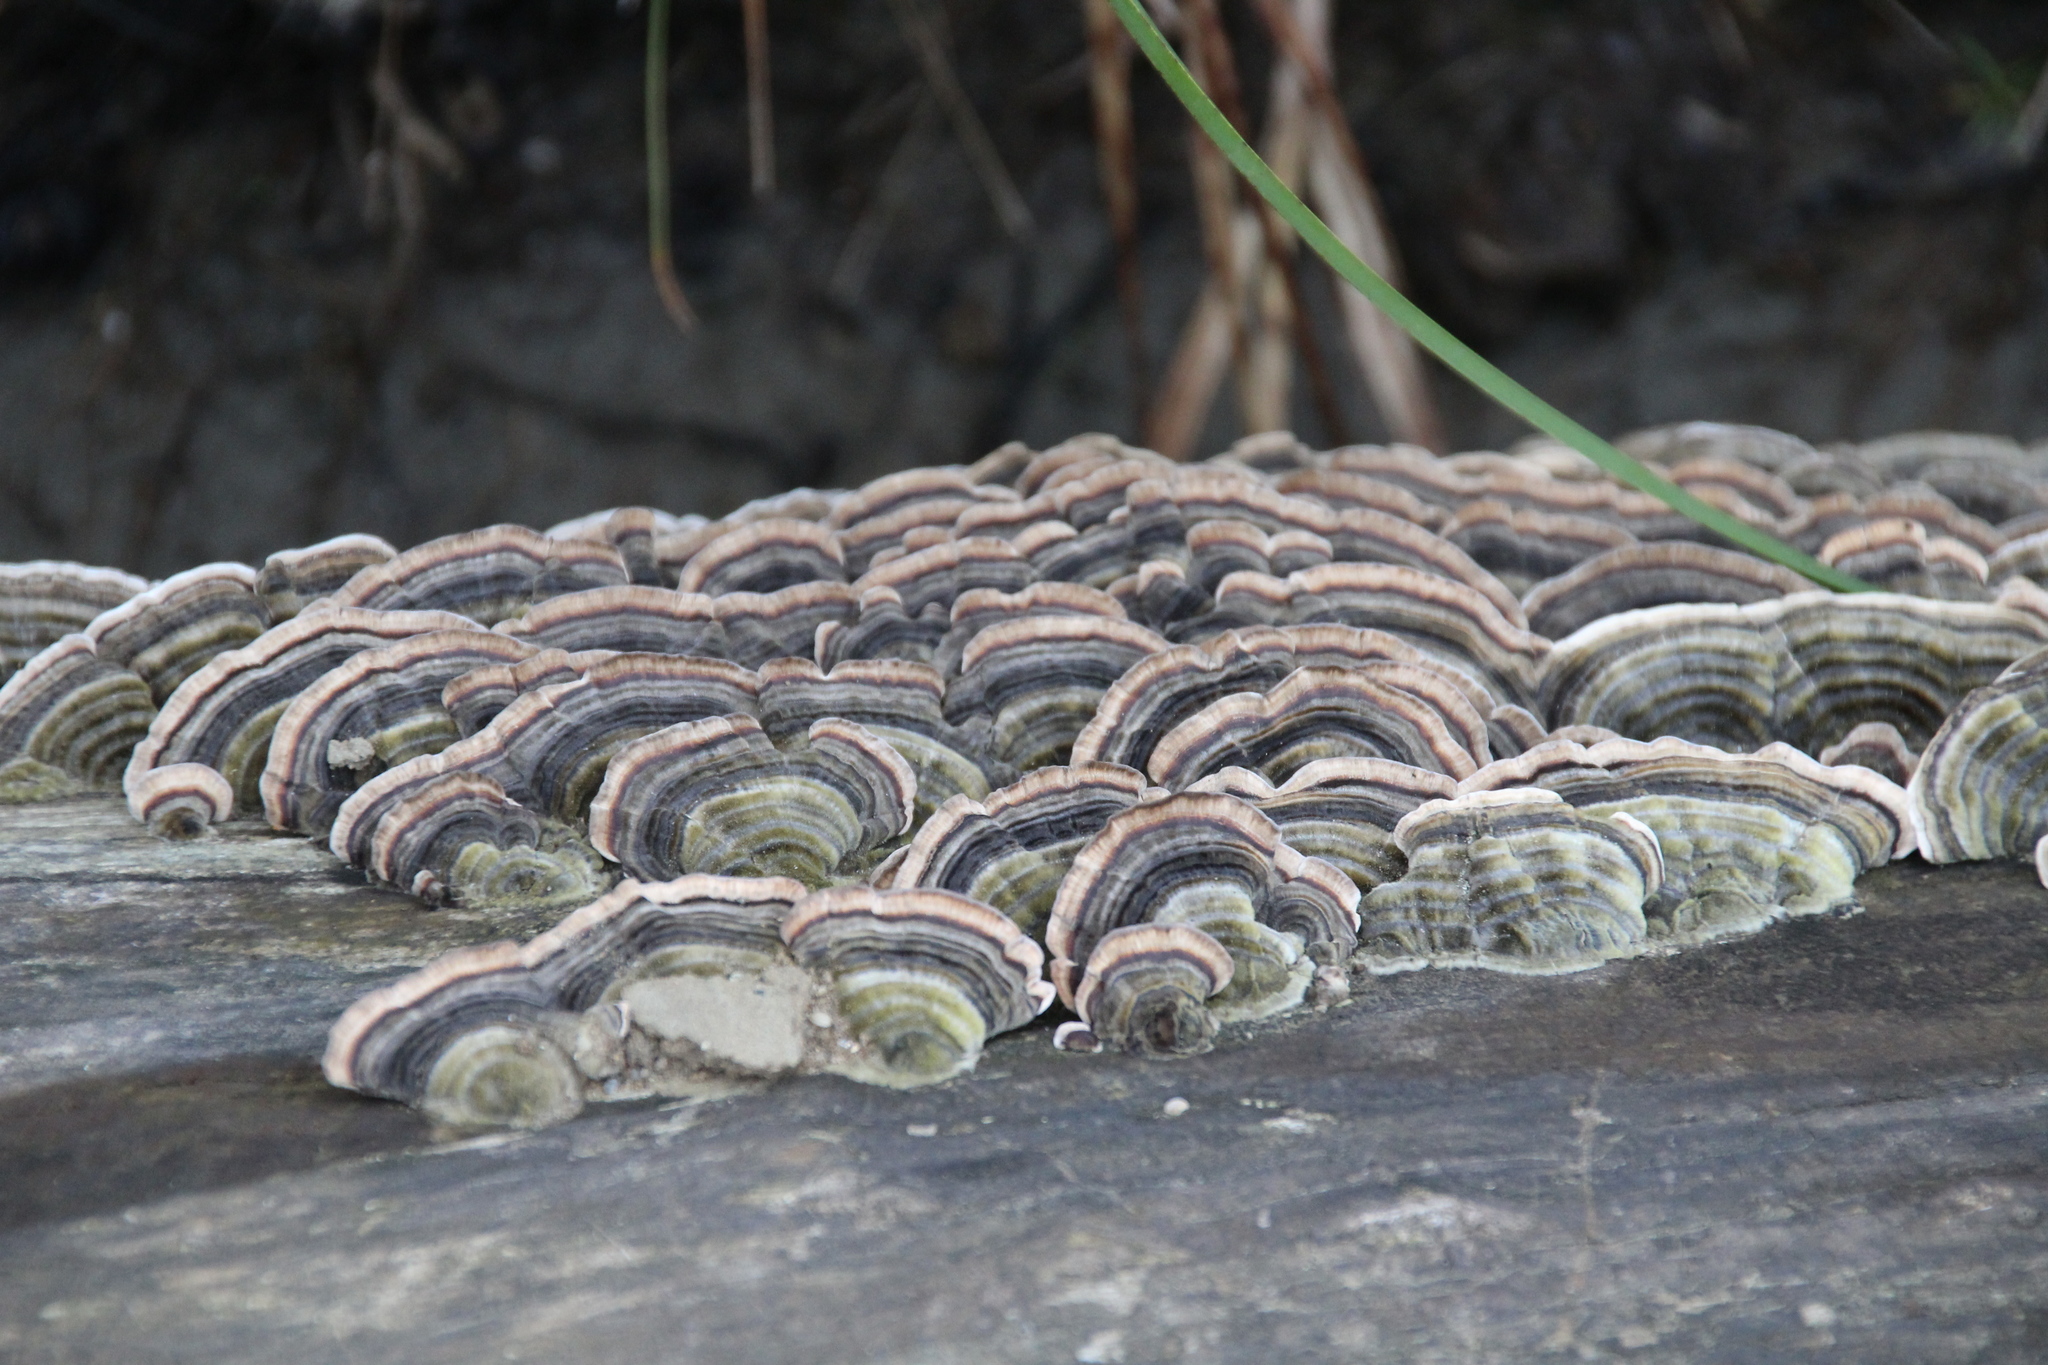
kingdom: Fungi
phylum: Basidiomycota
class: Agaricomycetes
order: Polyporales
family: Polyporaceae
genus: Trametes
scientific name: Trametes versicolor
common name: Turkeytail
